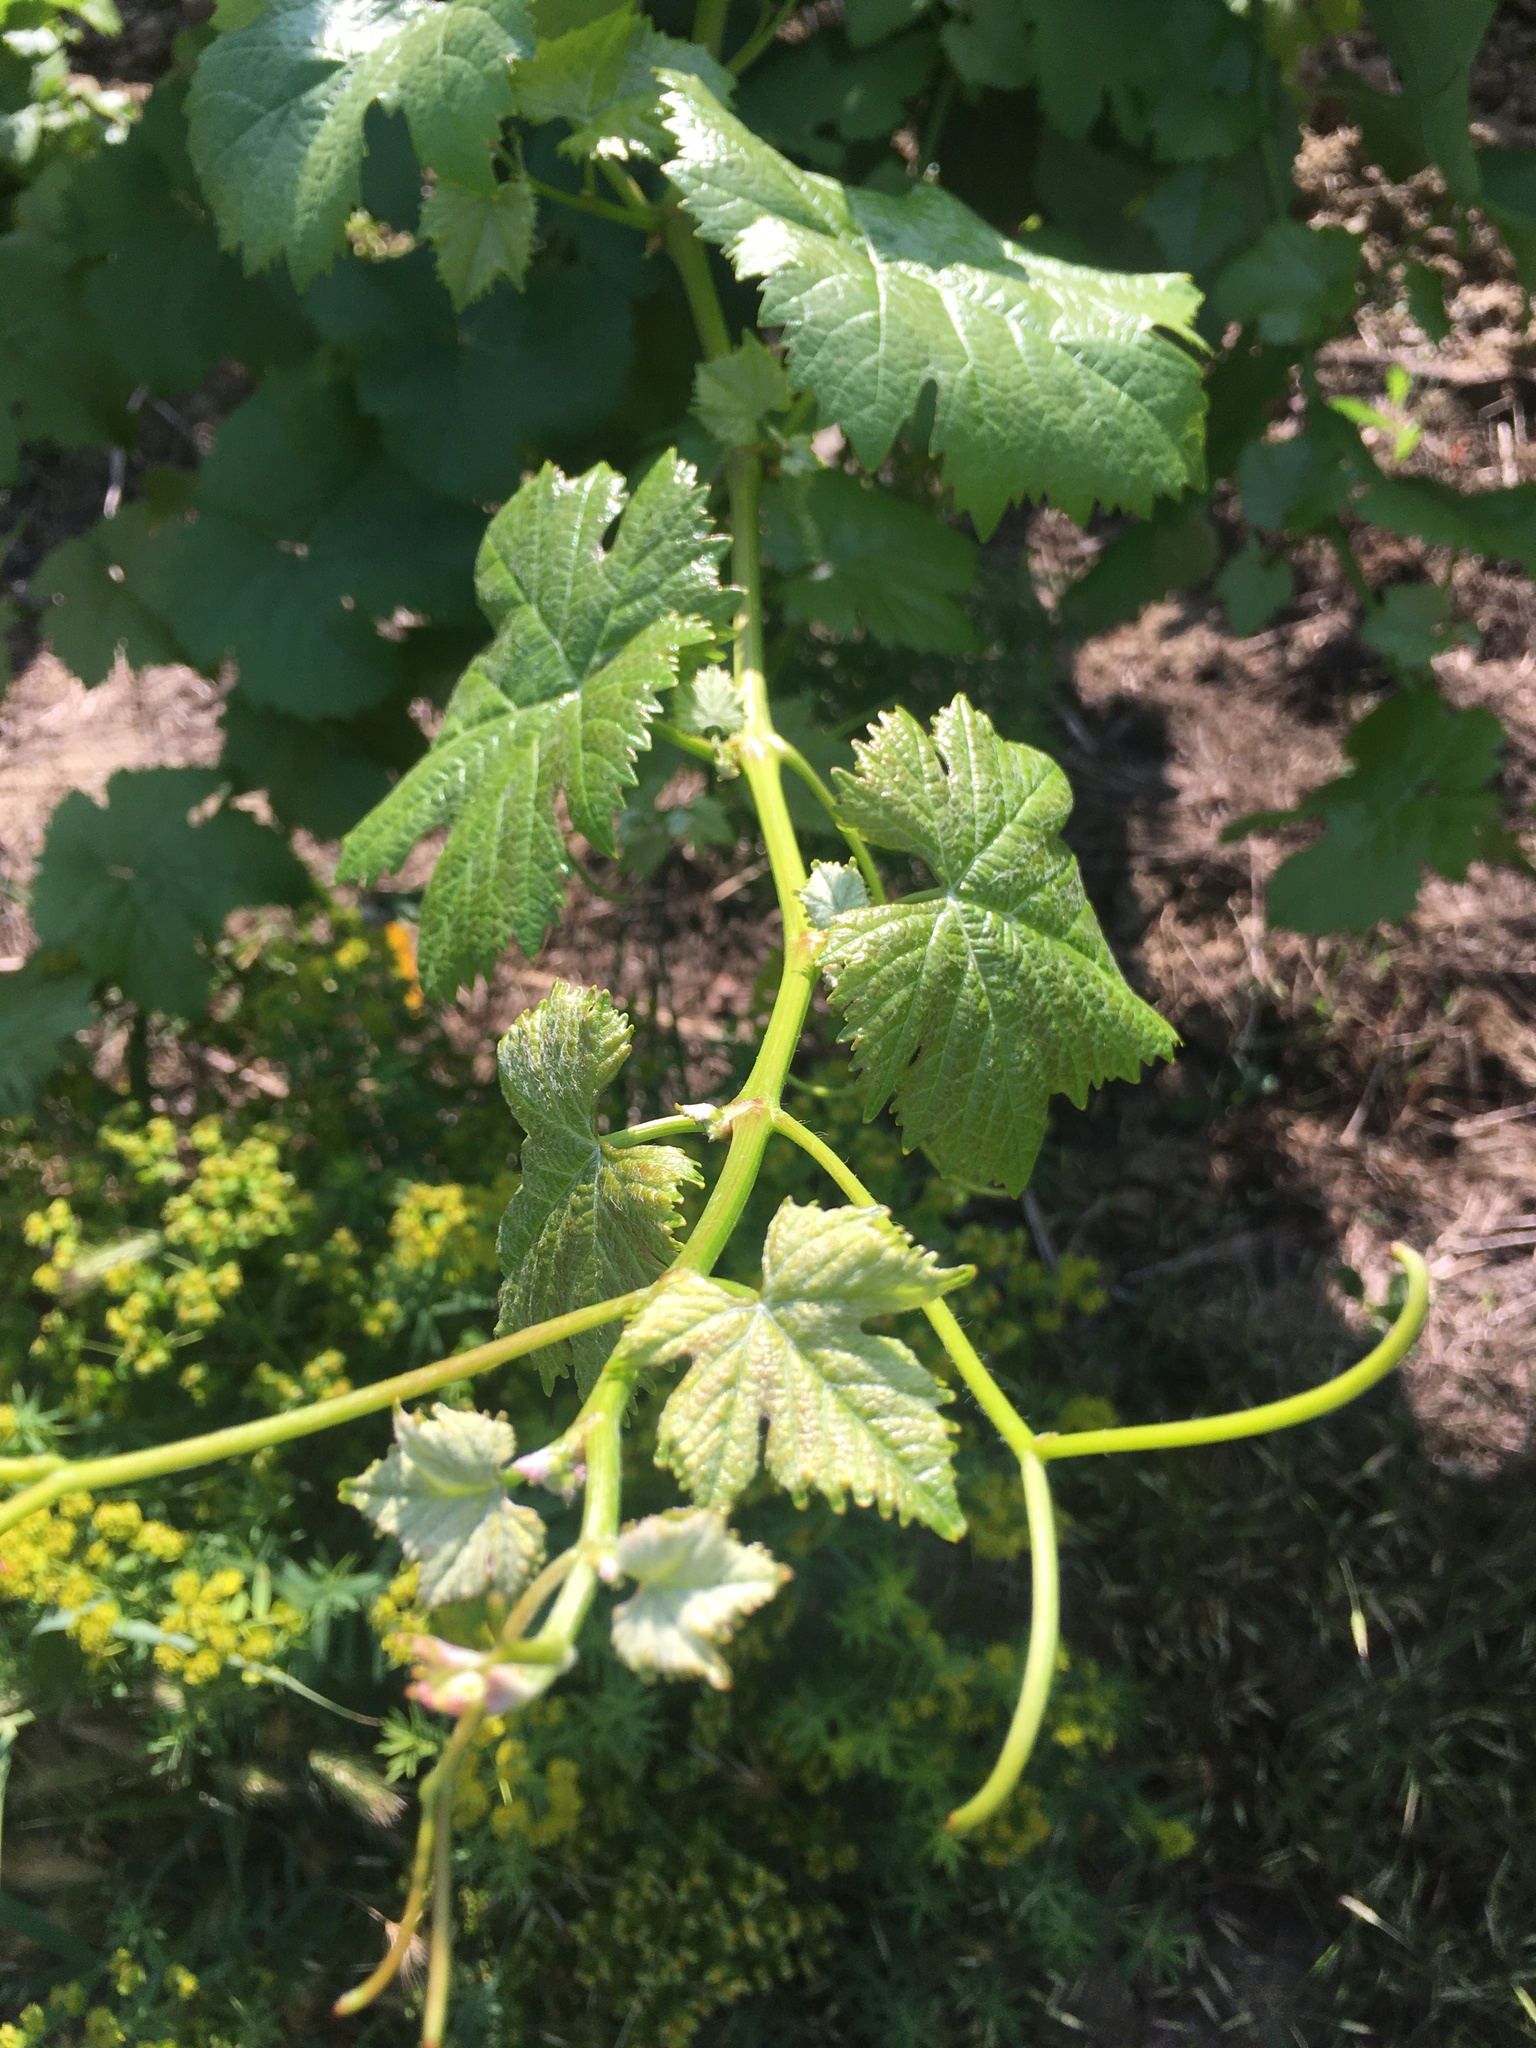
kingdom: Plantae
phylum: Tracheophyta
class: Magnoliopsida
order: Vitales
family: Vitaceae
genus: Vitis
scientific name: Vitis vinifera
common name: Grape-vine
